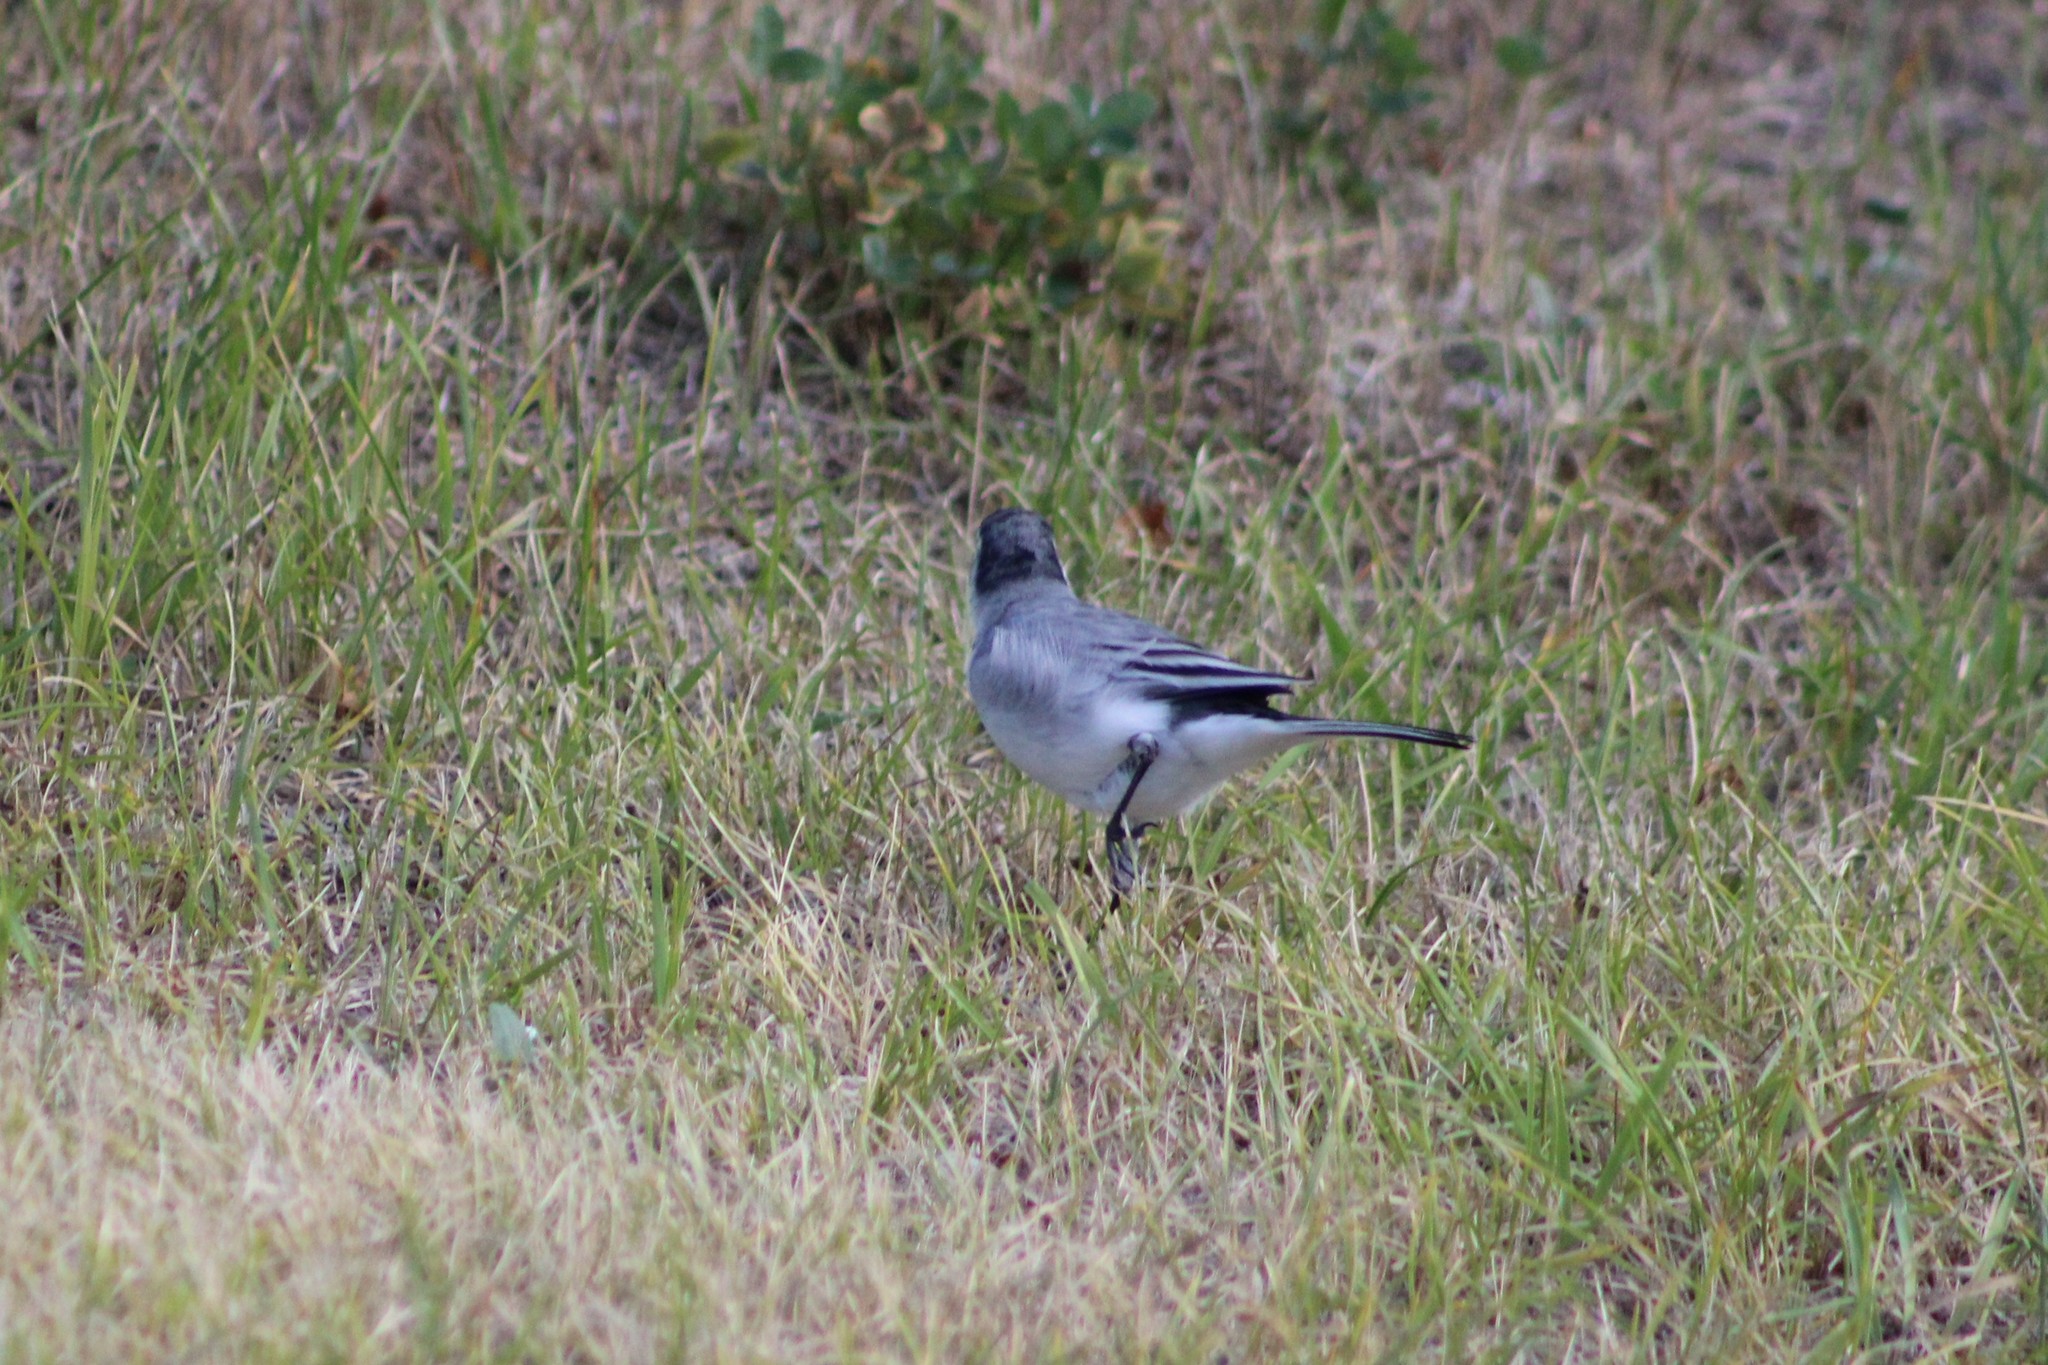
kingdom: Animalia
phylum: Chordata
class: Aves
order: Passeriformes
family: Motacillidae
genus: Motacilla
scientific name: Motacilla alba
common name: White wagtail
